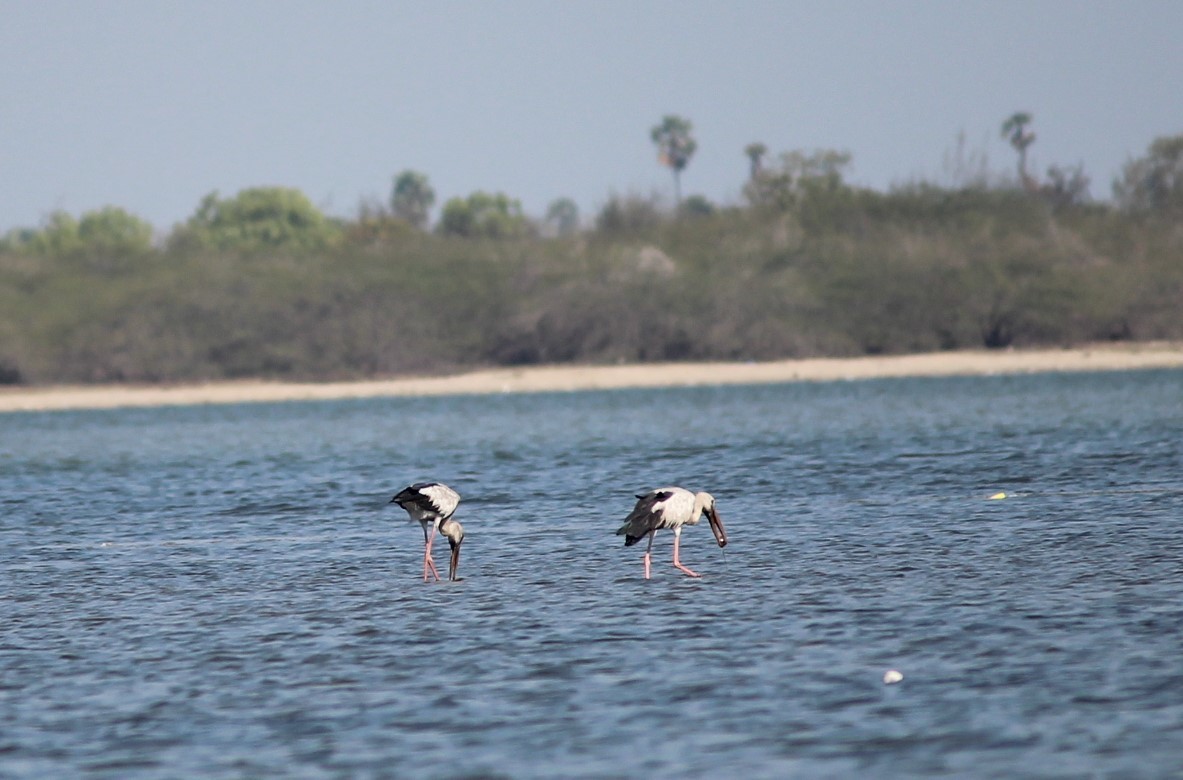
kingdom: Animalia
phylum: Chordata
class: Aves
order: Ciconiiformes
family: Ciconiidae
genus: Anastomus
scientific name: Anastomus oscitans
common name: Asian openbill
